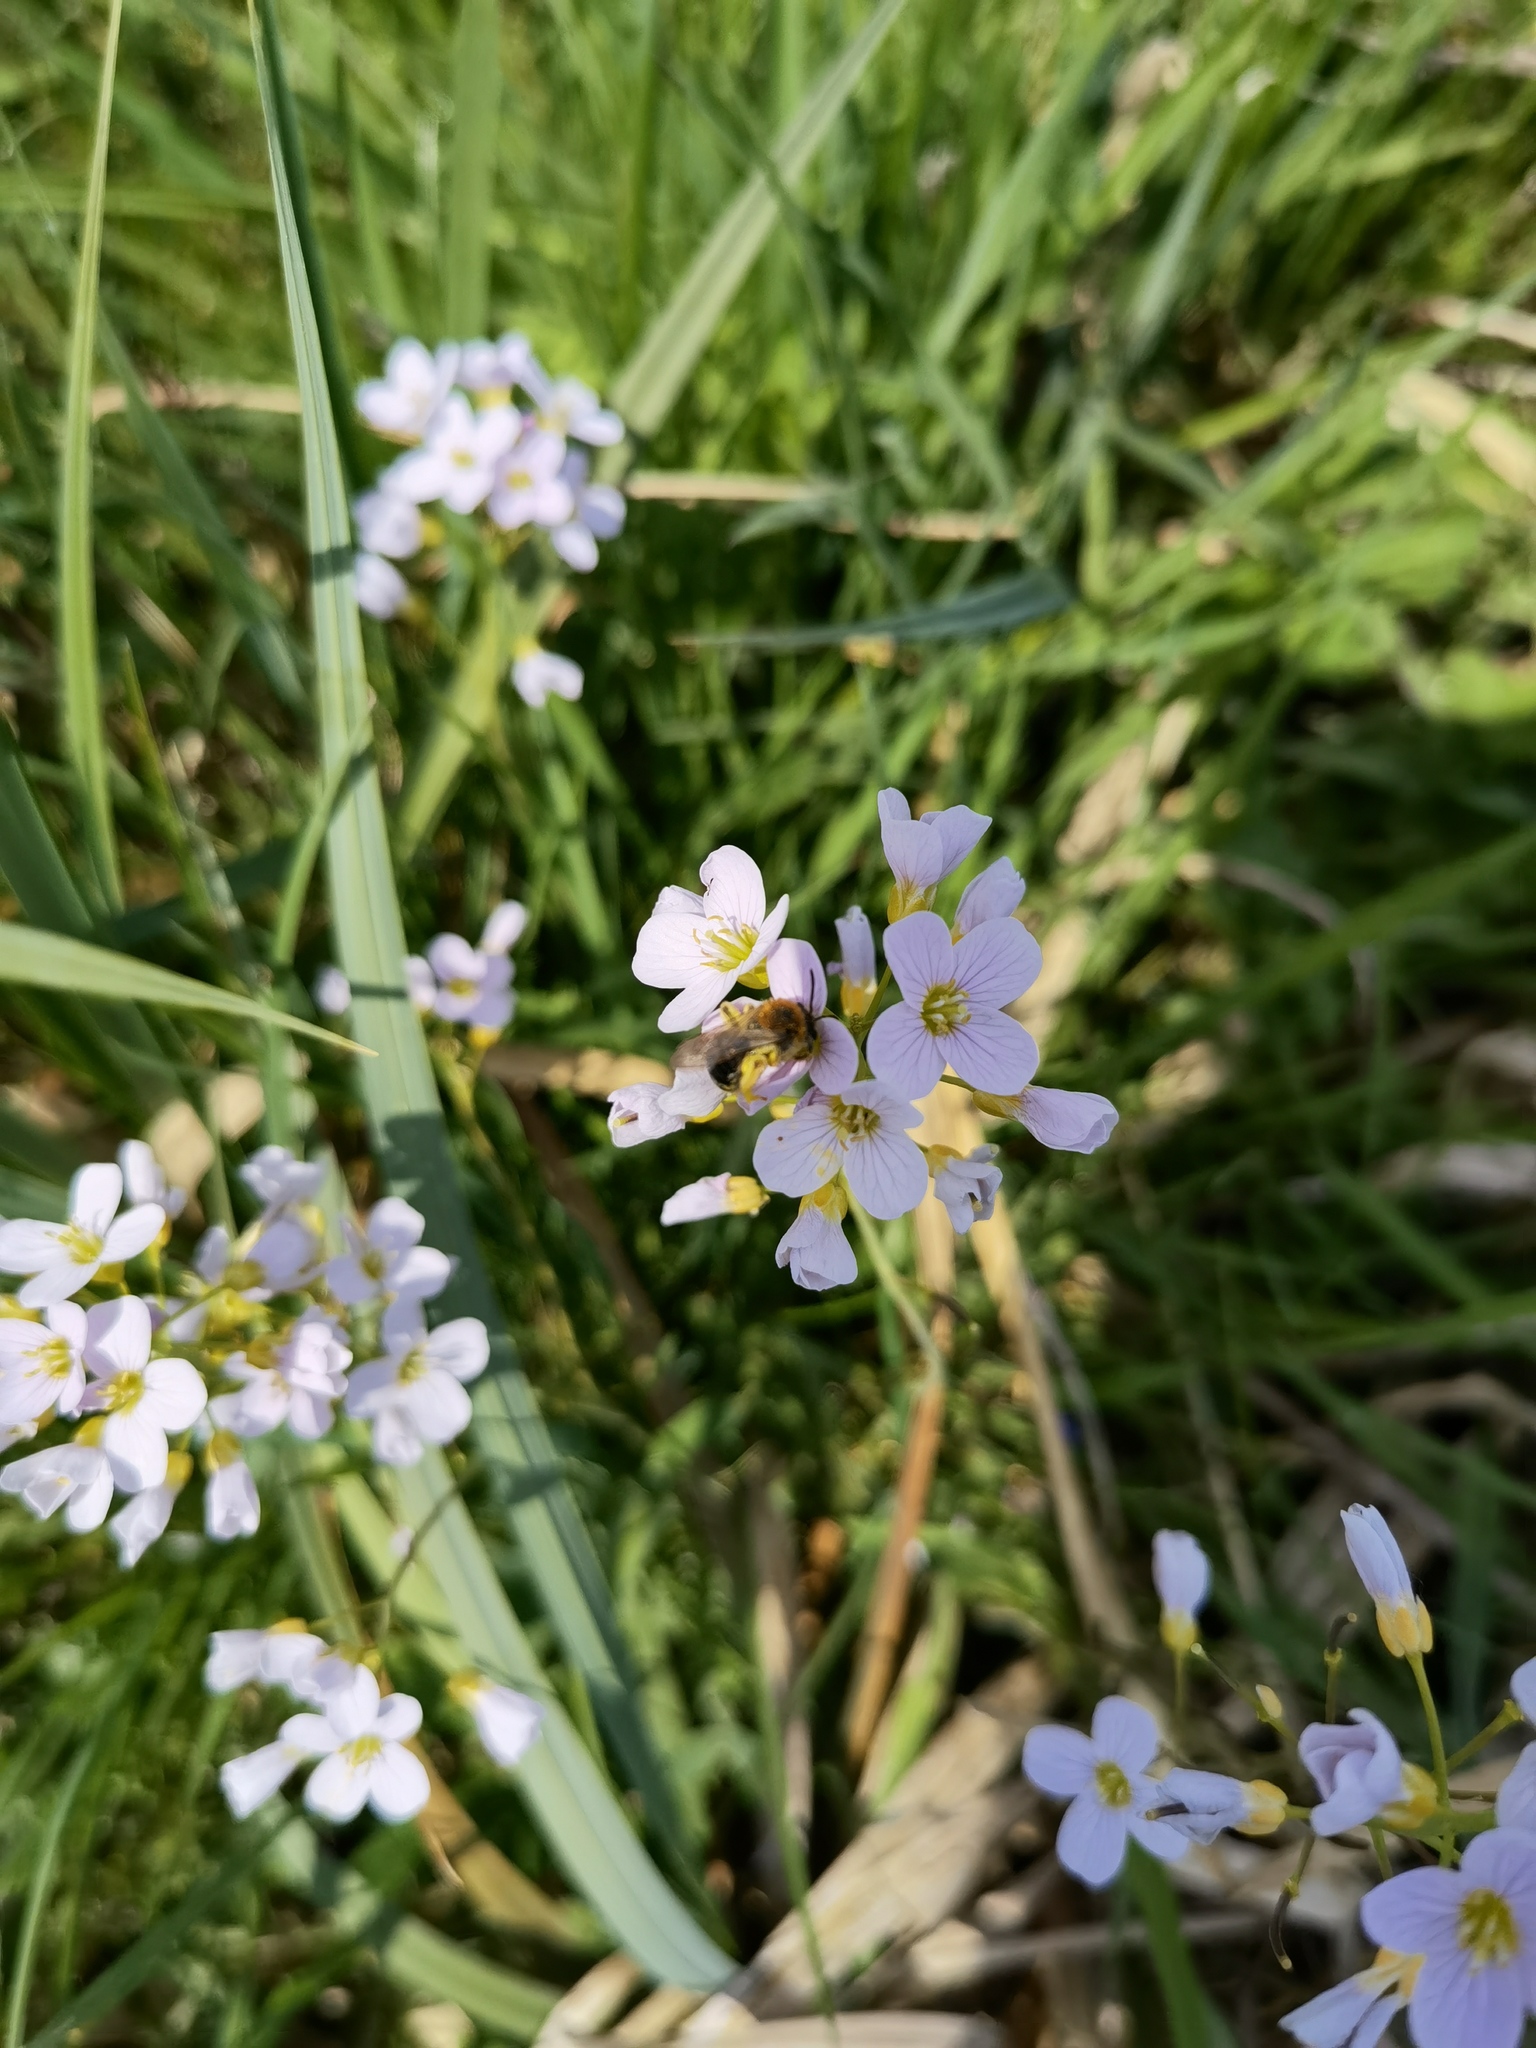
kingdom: Plantae
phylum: Tracheophyta
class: Magnoliopsida
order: Brassicales
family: Brassicaceae
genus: Cardamine
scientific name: Cardamine pratensis
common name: Cuckoo flower
